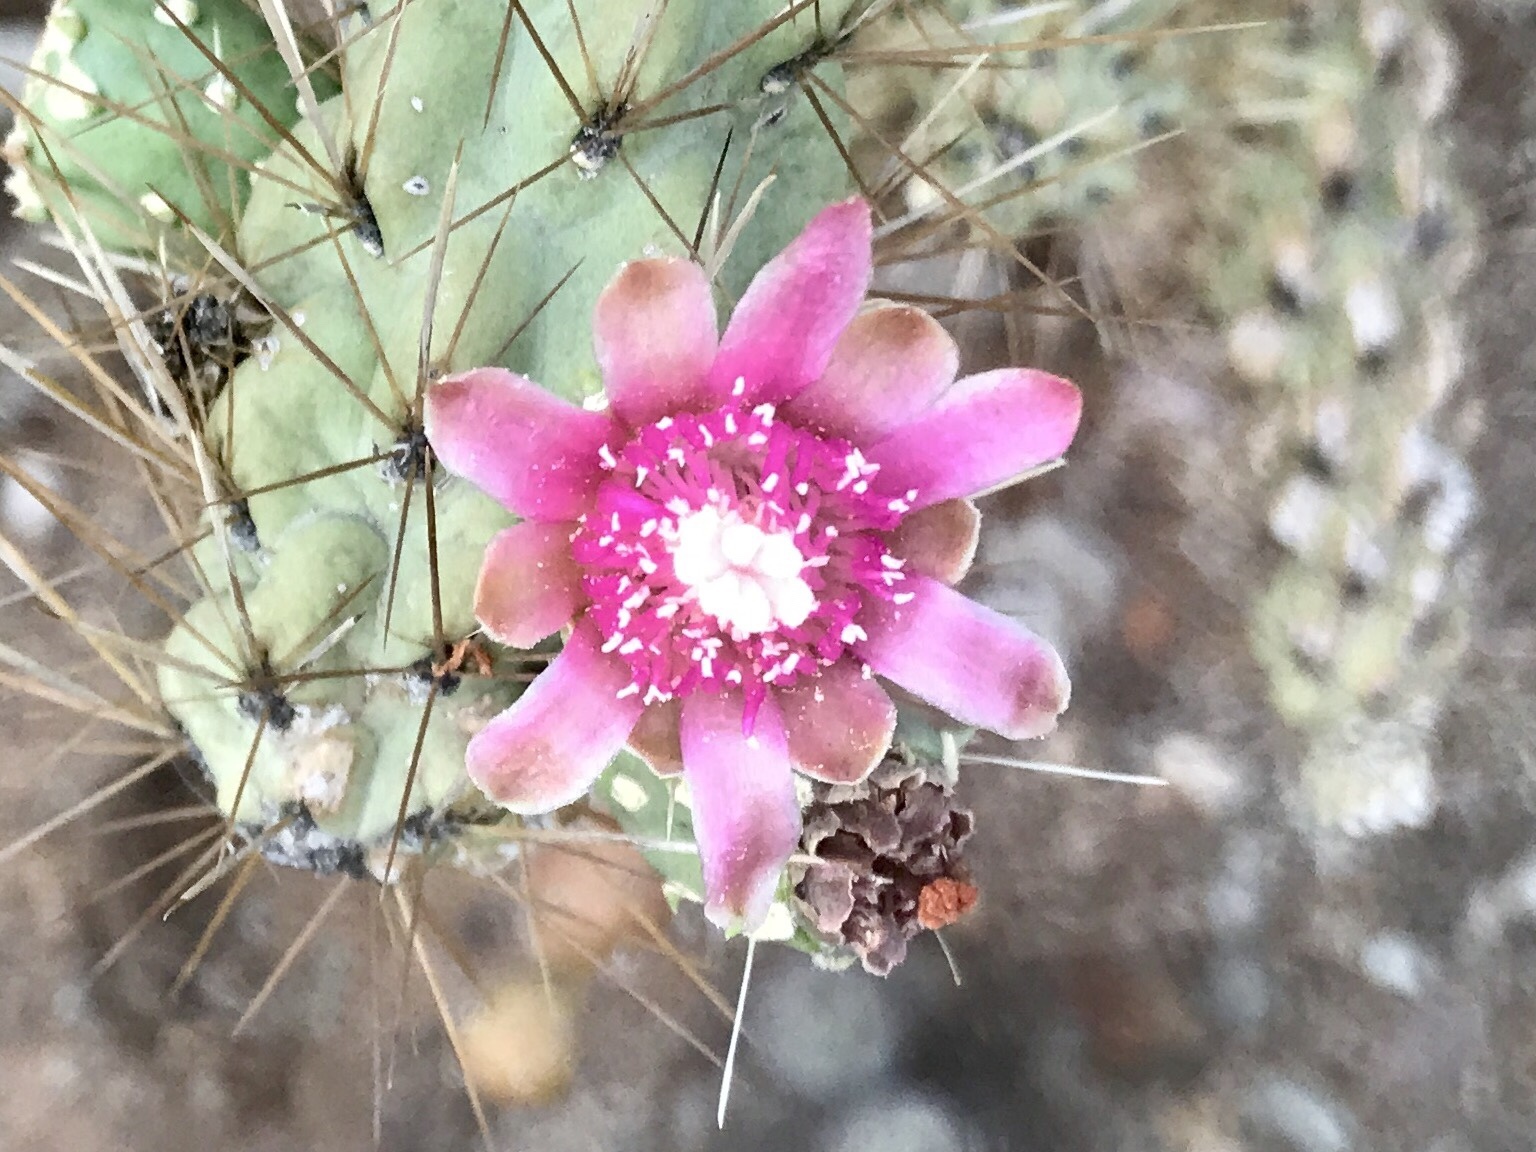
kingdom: Plantae
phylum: Tracheophyta
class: Magnoliopsida
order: Caryophyllales
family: Cactaceae
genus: Cylindropuntia
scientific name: Cylindropuntia fulgida
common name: Jumping cholla
